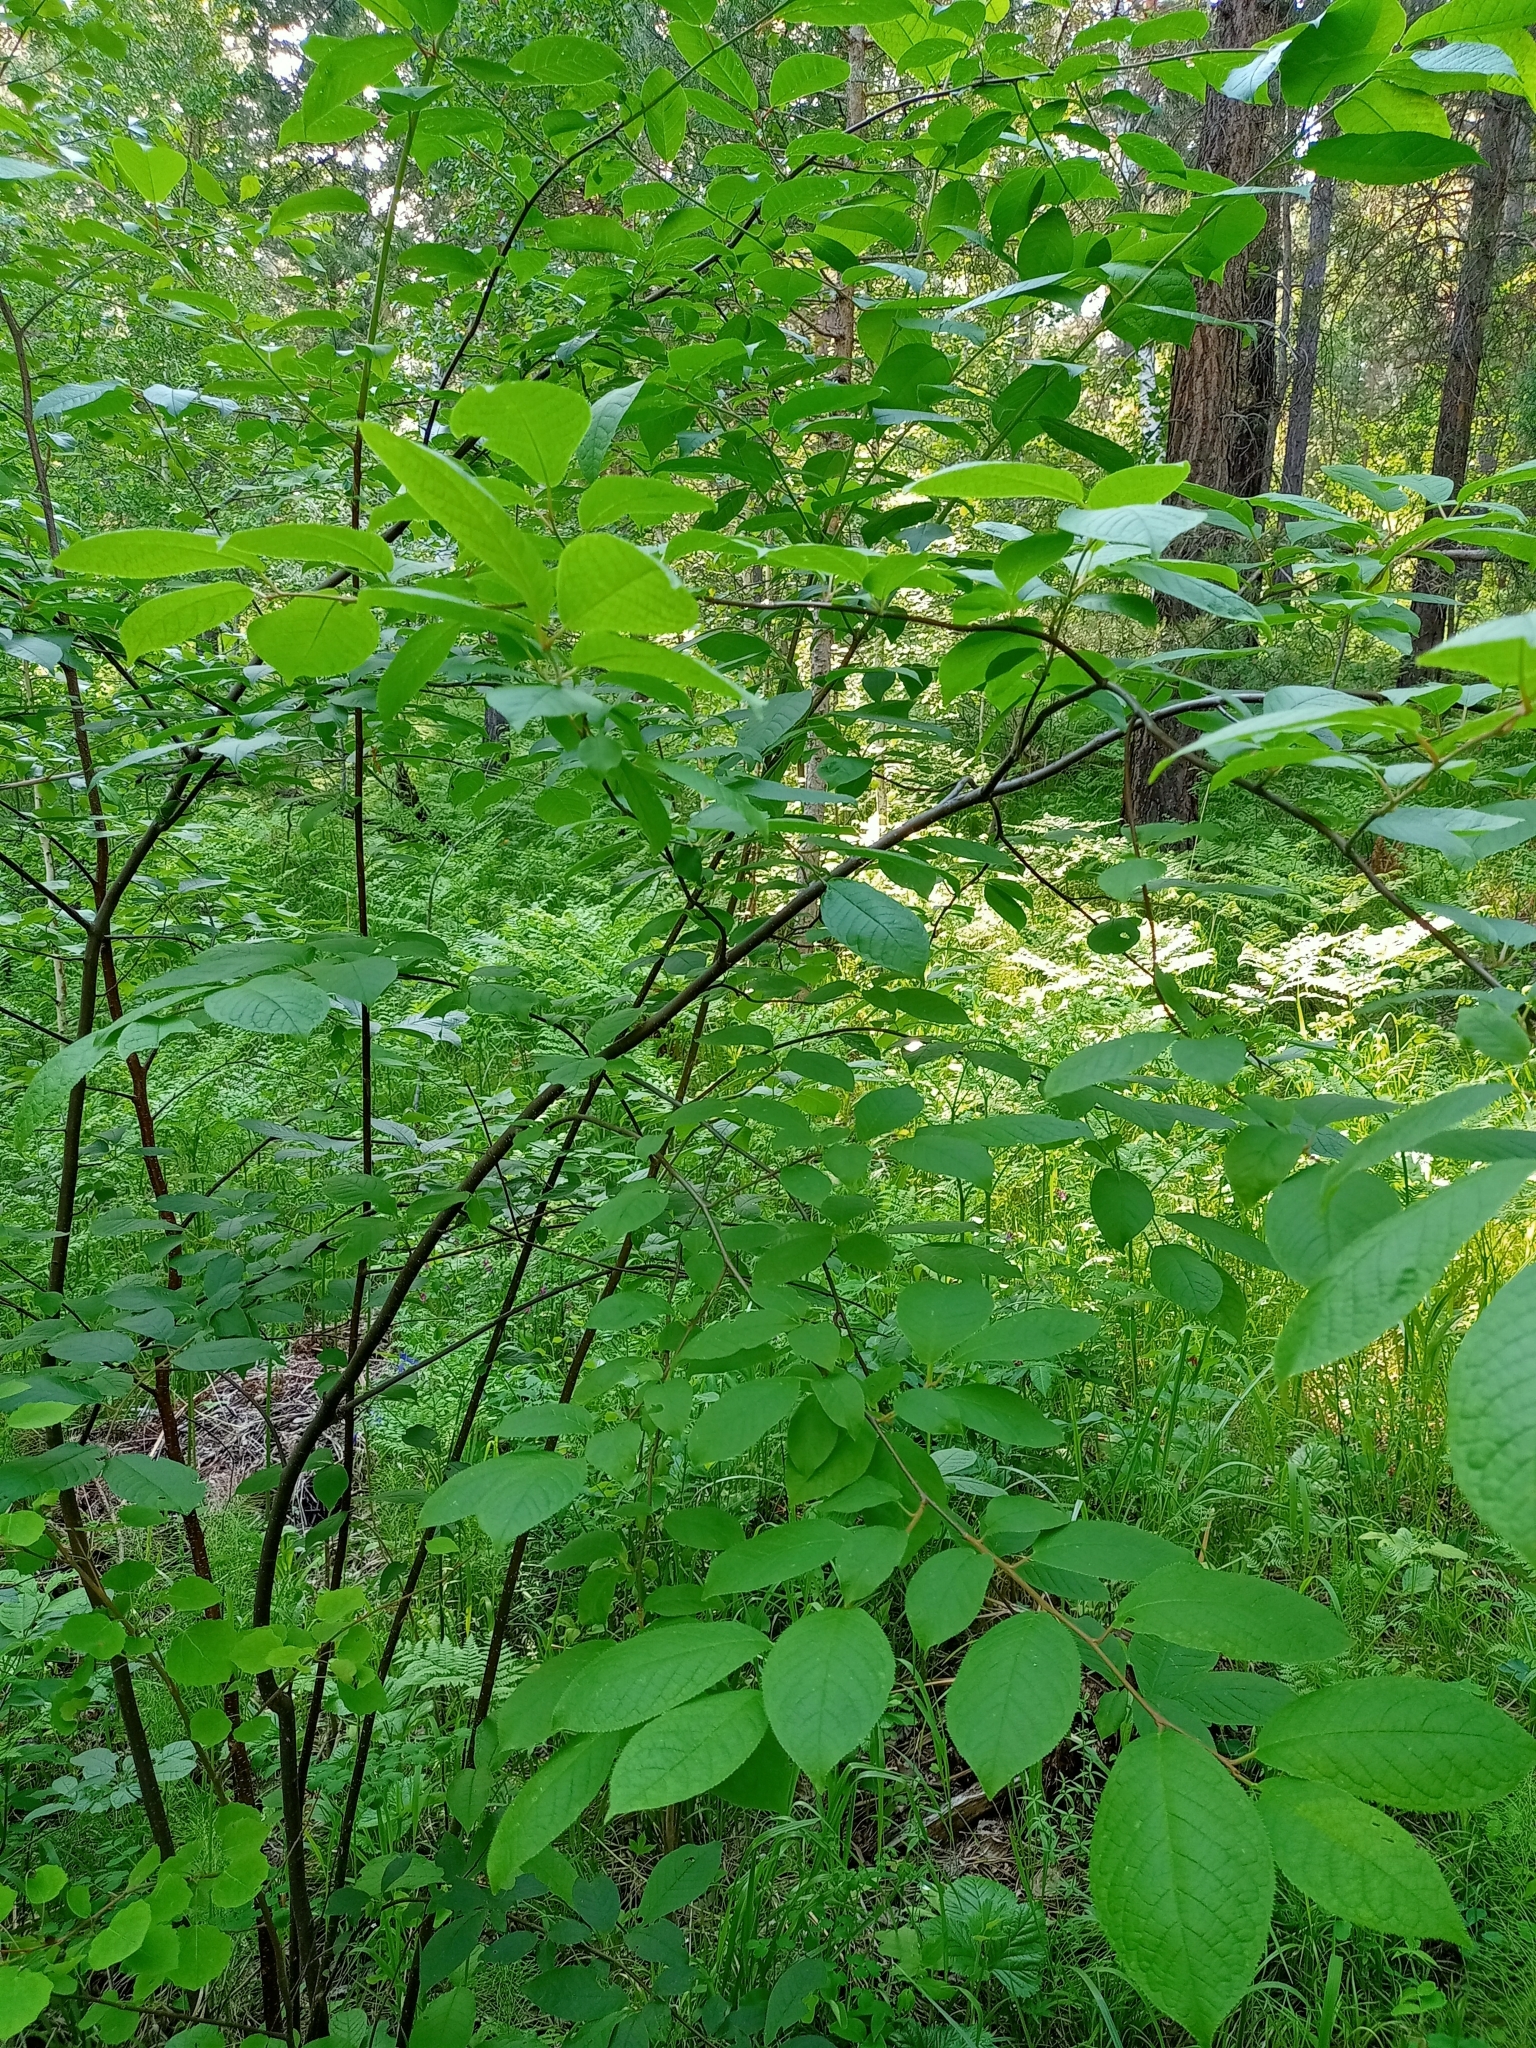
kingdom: Plantae
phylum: Tracheophyta
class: Magnoliopsida
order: Rosales
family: Rosaceae
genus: Prunus
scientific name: Prunus padus
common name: Bird cherry
